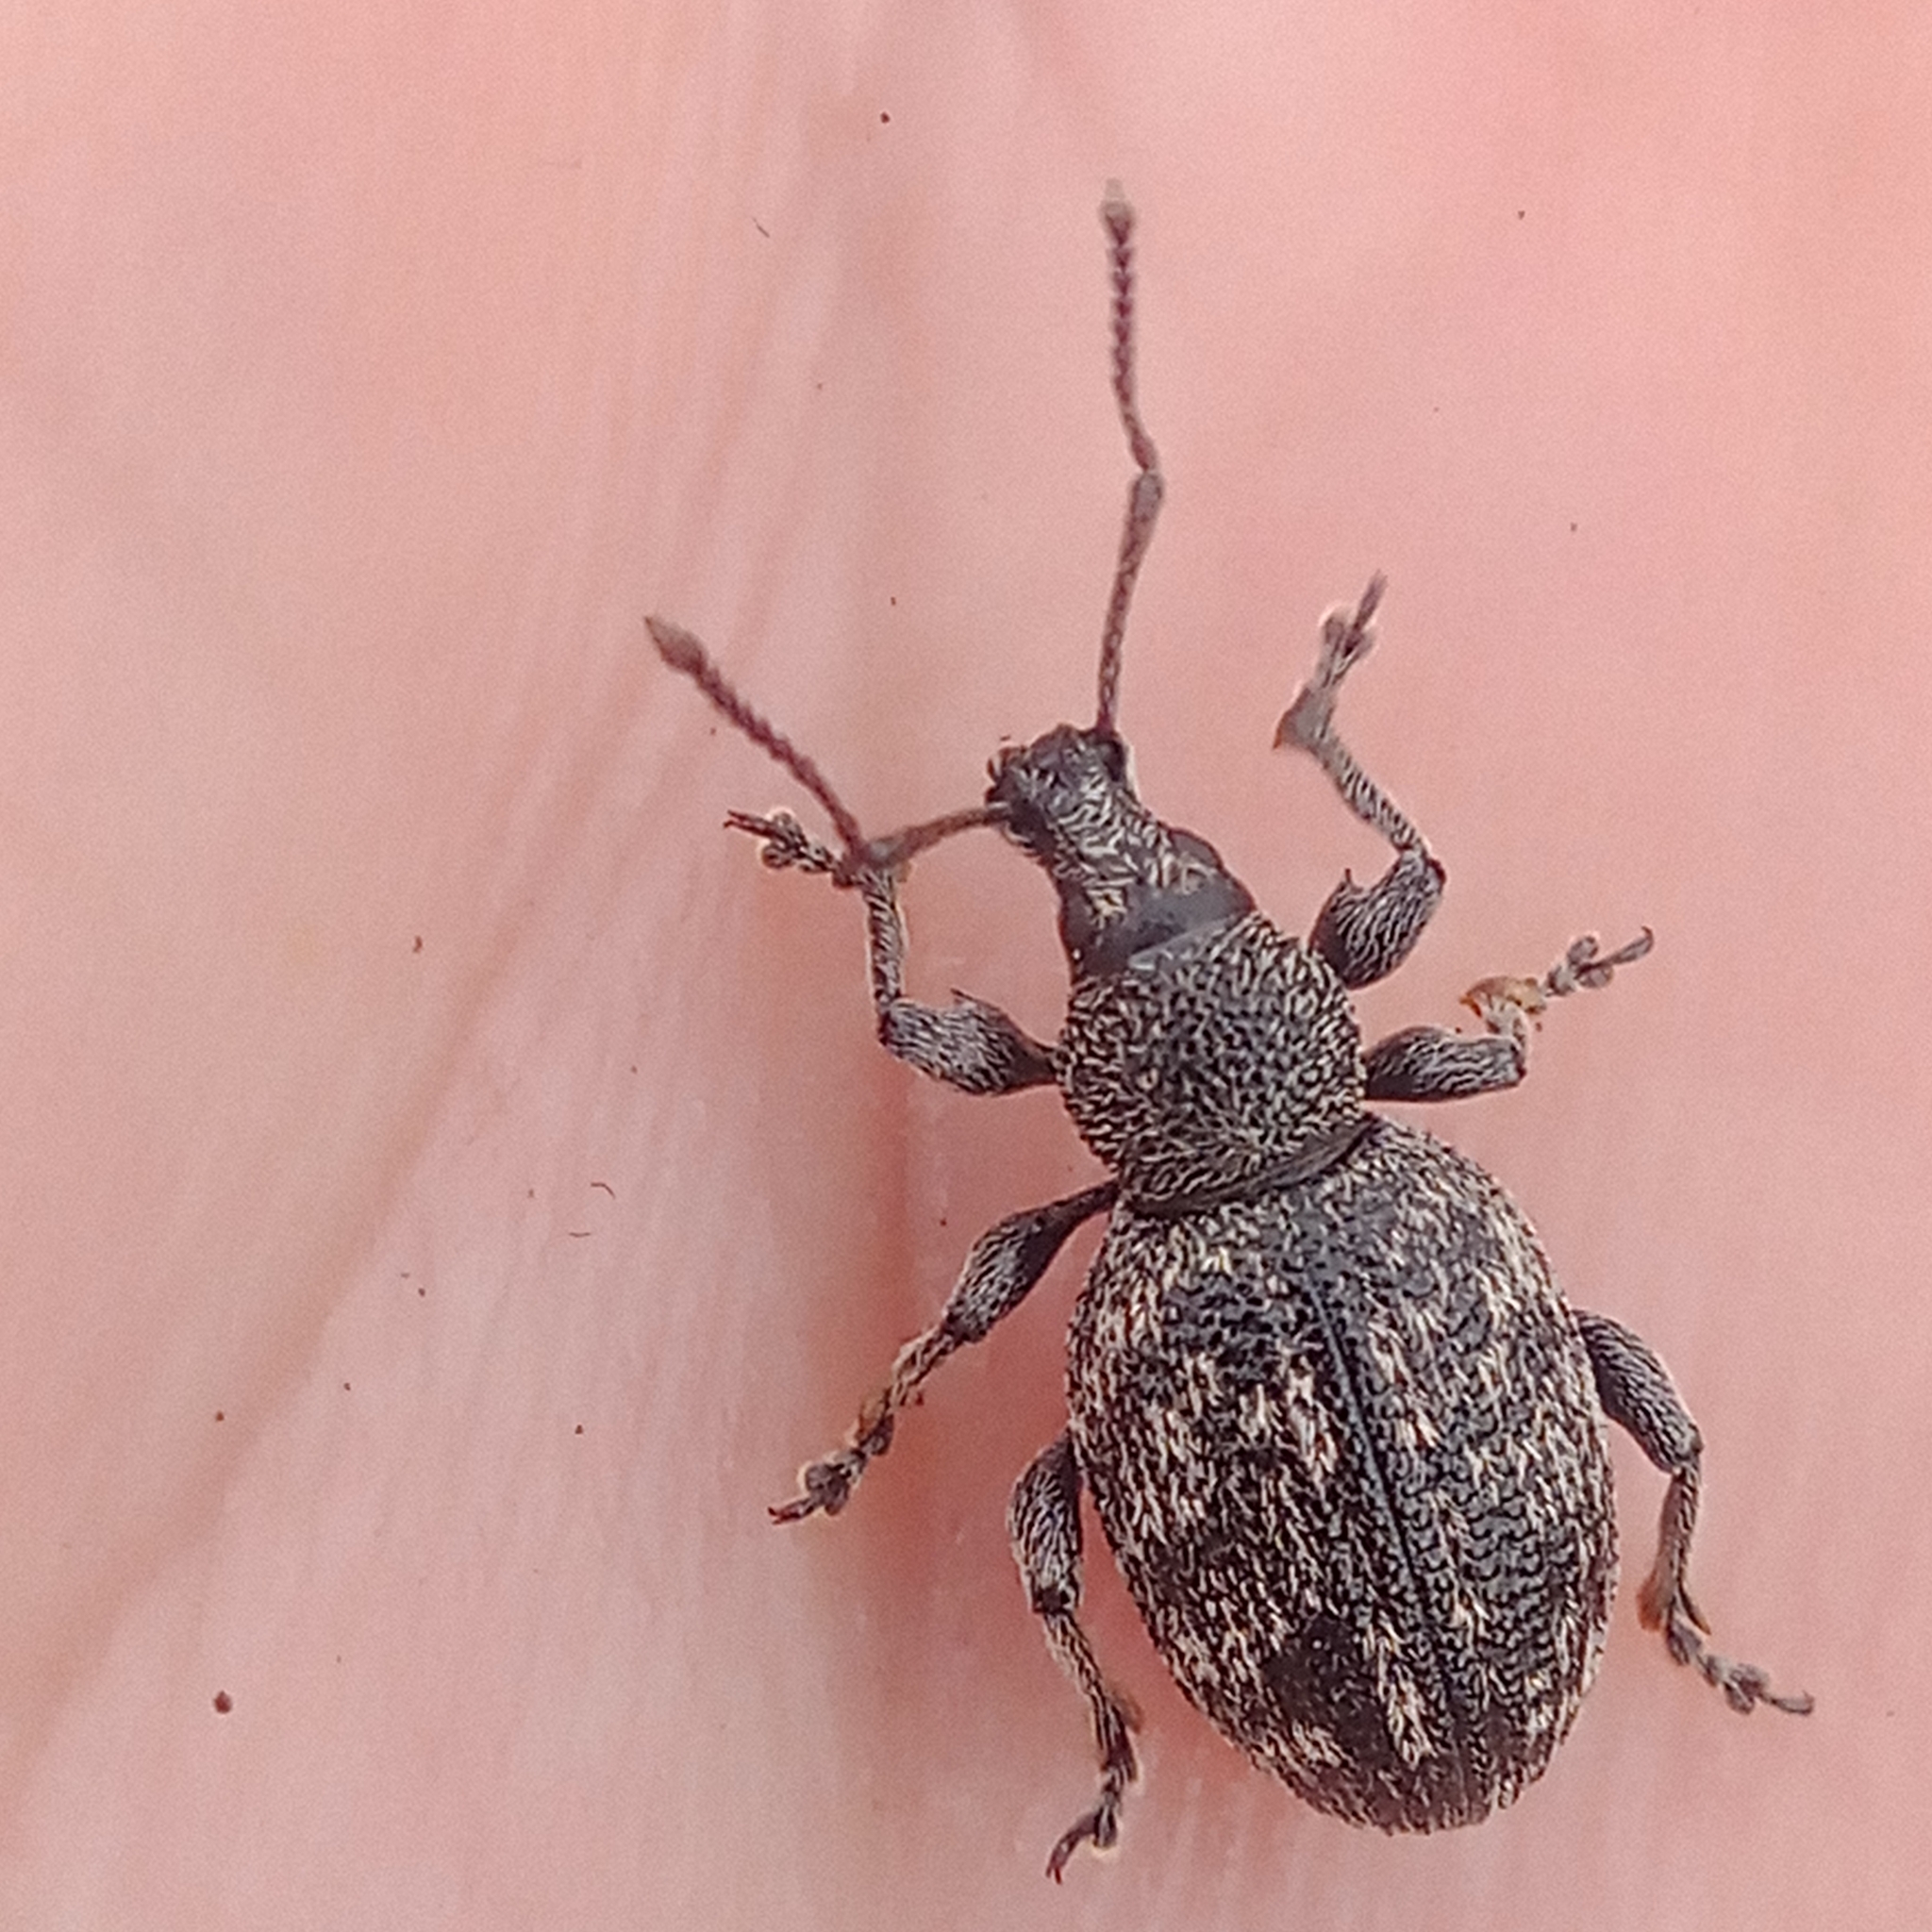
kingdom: Animalia
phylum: Arthropoda
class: Insecta
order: Coleoptera
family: Curculionidae
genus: Otiorhynchus
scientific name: Otiorhynchus tristis
